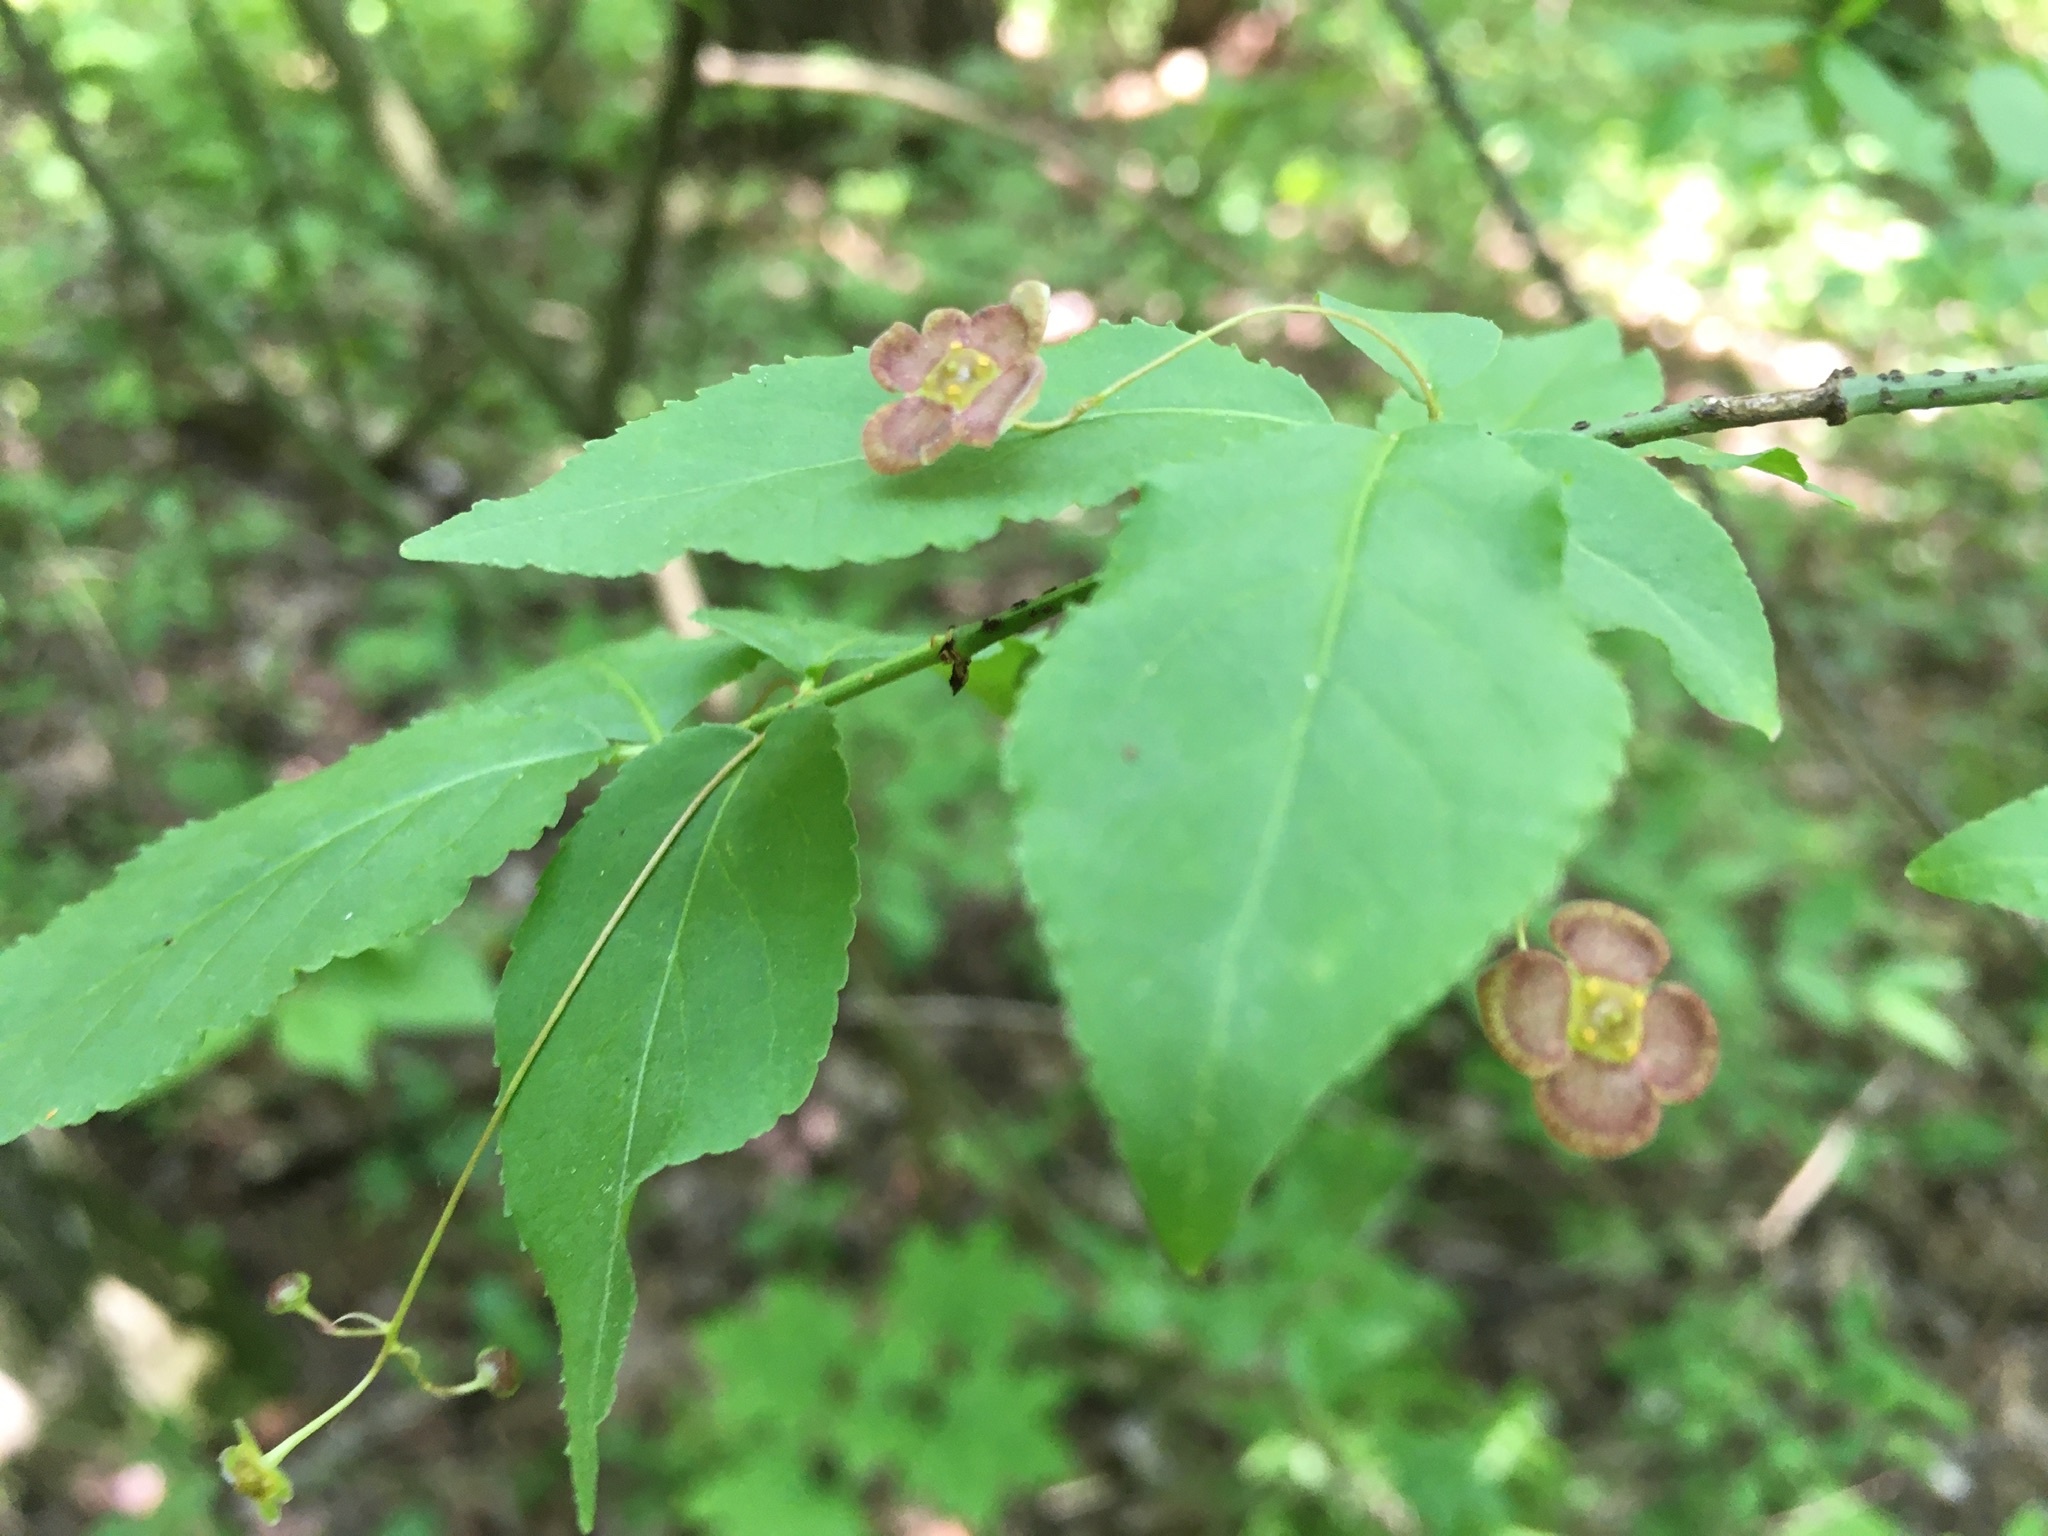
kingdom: Plantae
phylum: Tracheophyta
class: Magnoliopsida
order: Celastrales
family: Celastraceae
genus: Euonymus
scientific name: Euonymus verrucosus
